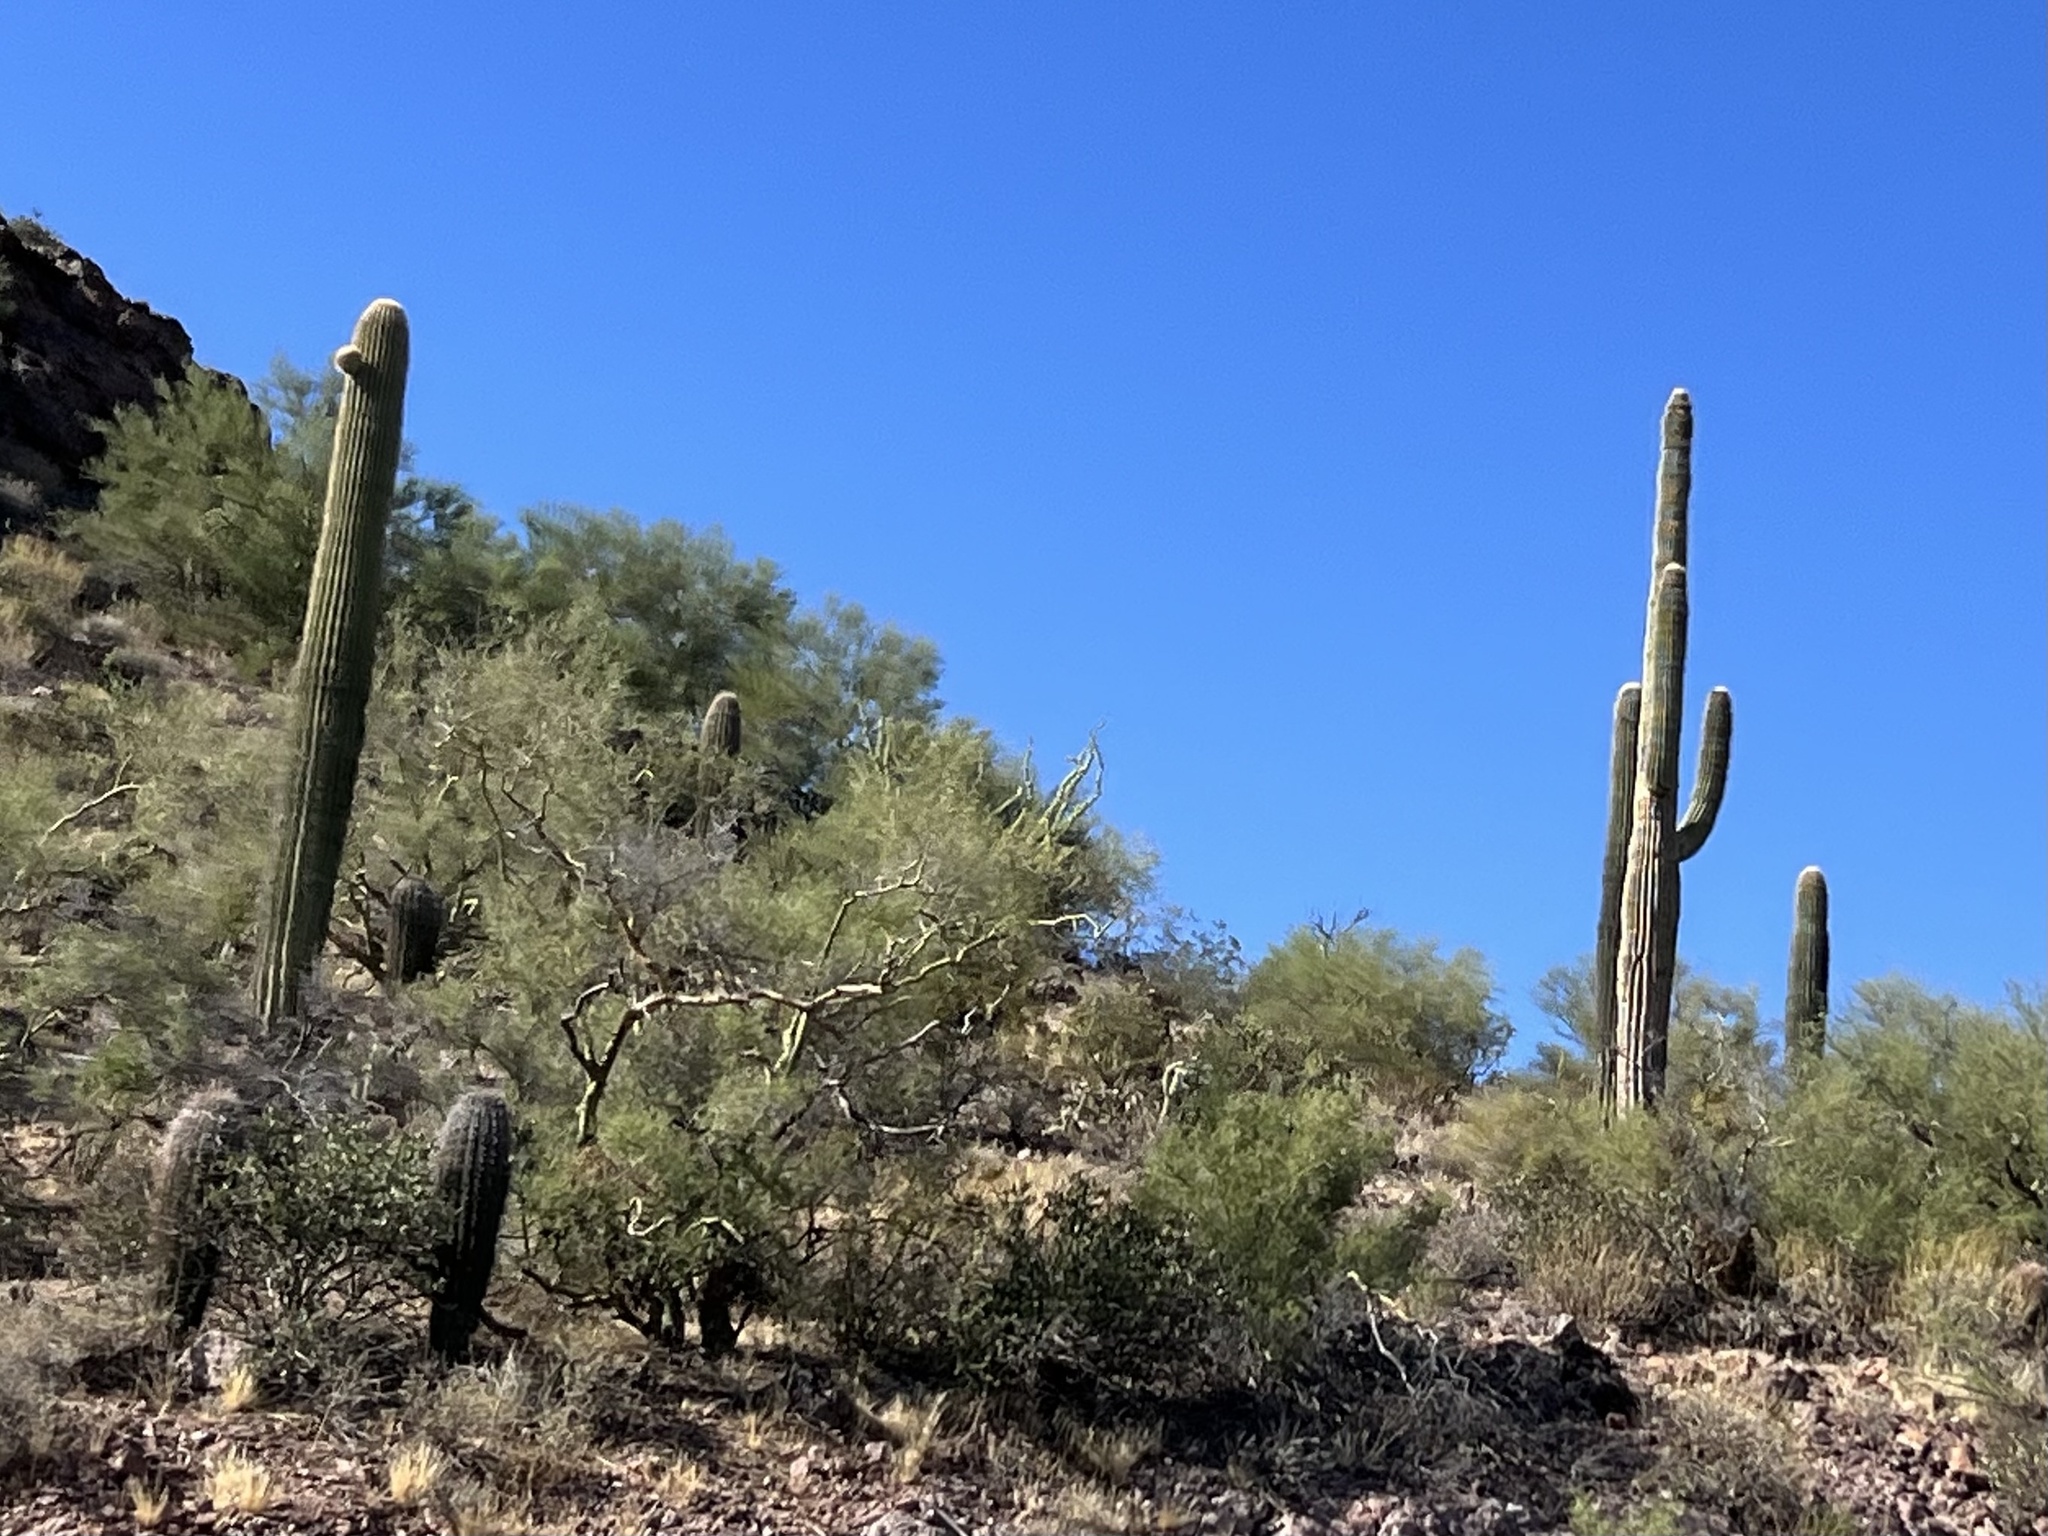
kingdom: Plantae
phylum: Tracheophyta
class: Magnoliopsida
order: Caryophyllales
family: Cactaceae
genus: Carnegiea
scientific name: Carnegiea gigantea
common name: Saguaro
